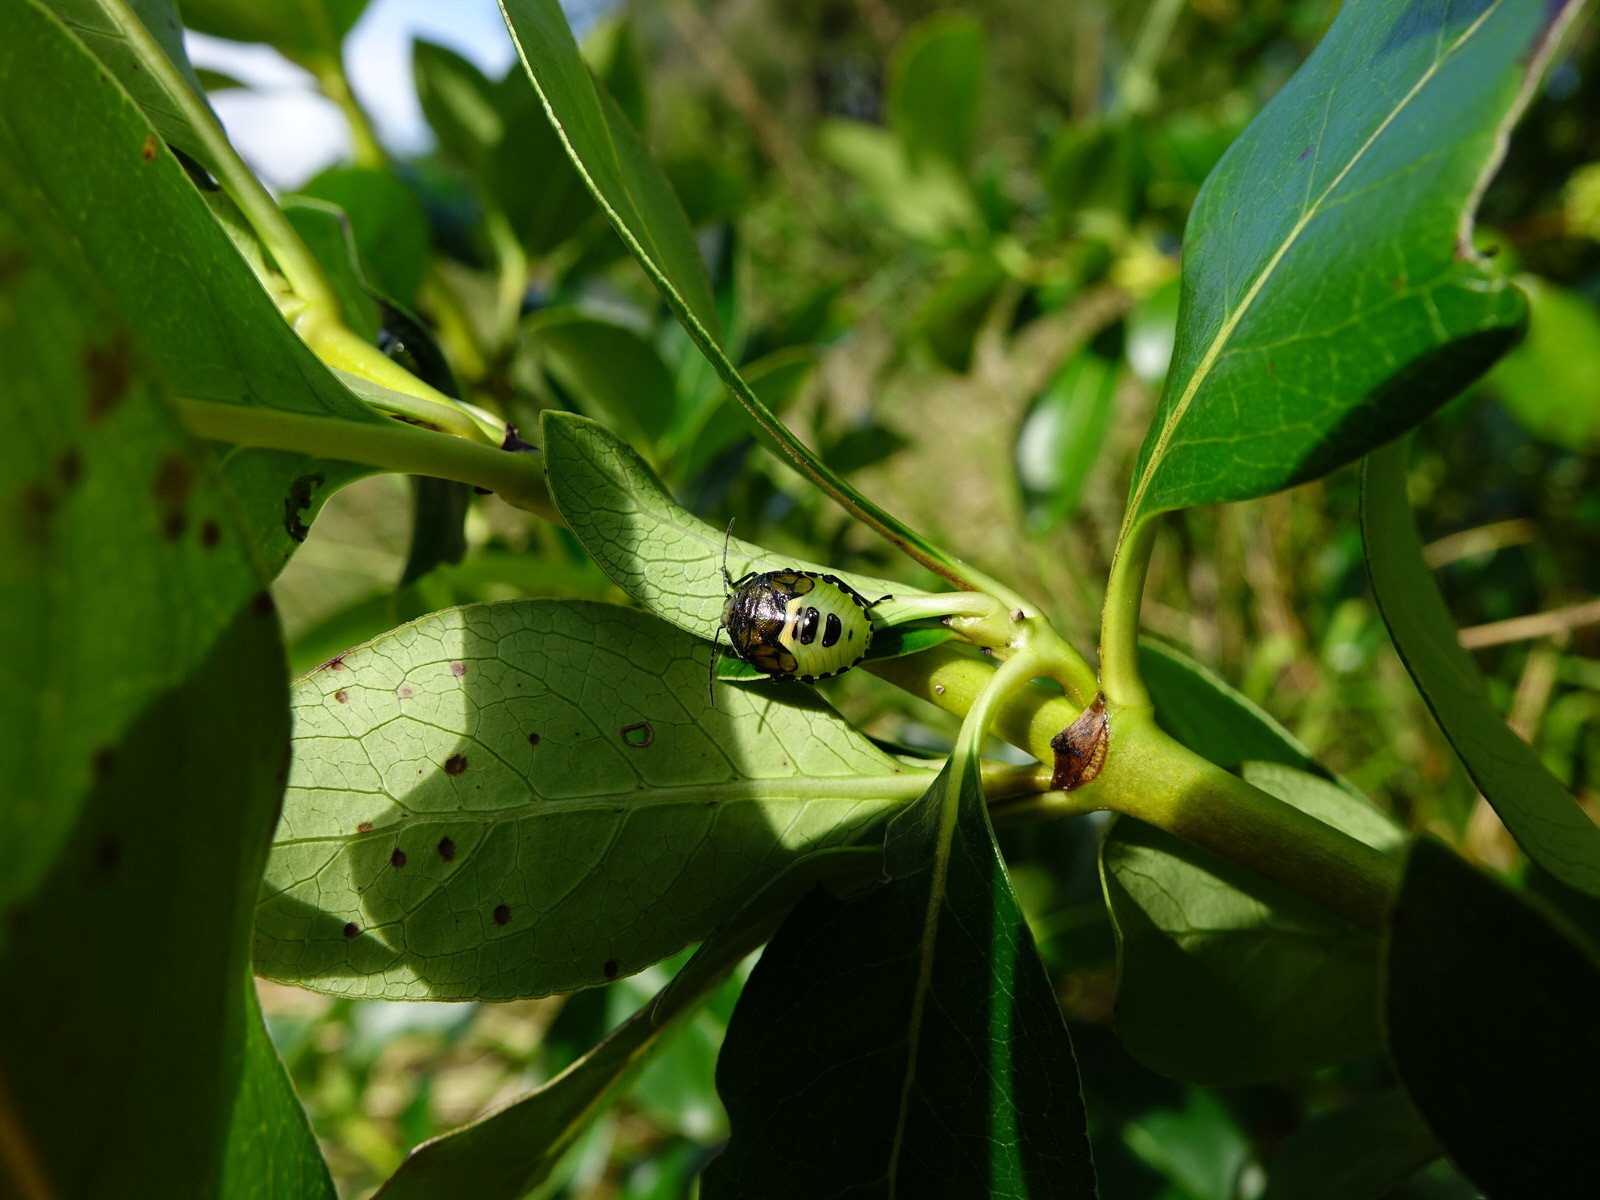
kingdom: Animalia
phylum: Arthropoda
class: Insecta
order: Hemiptera
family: Pentatomidae
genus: Glaucias
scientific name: Glaucias amyota
